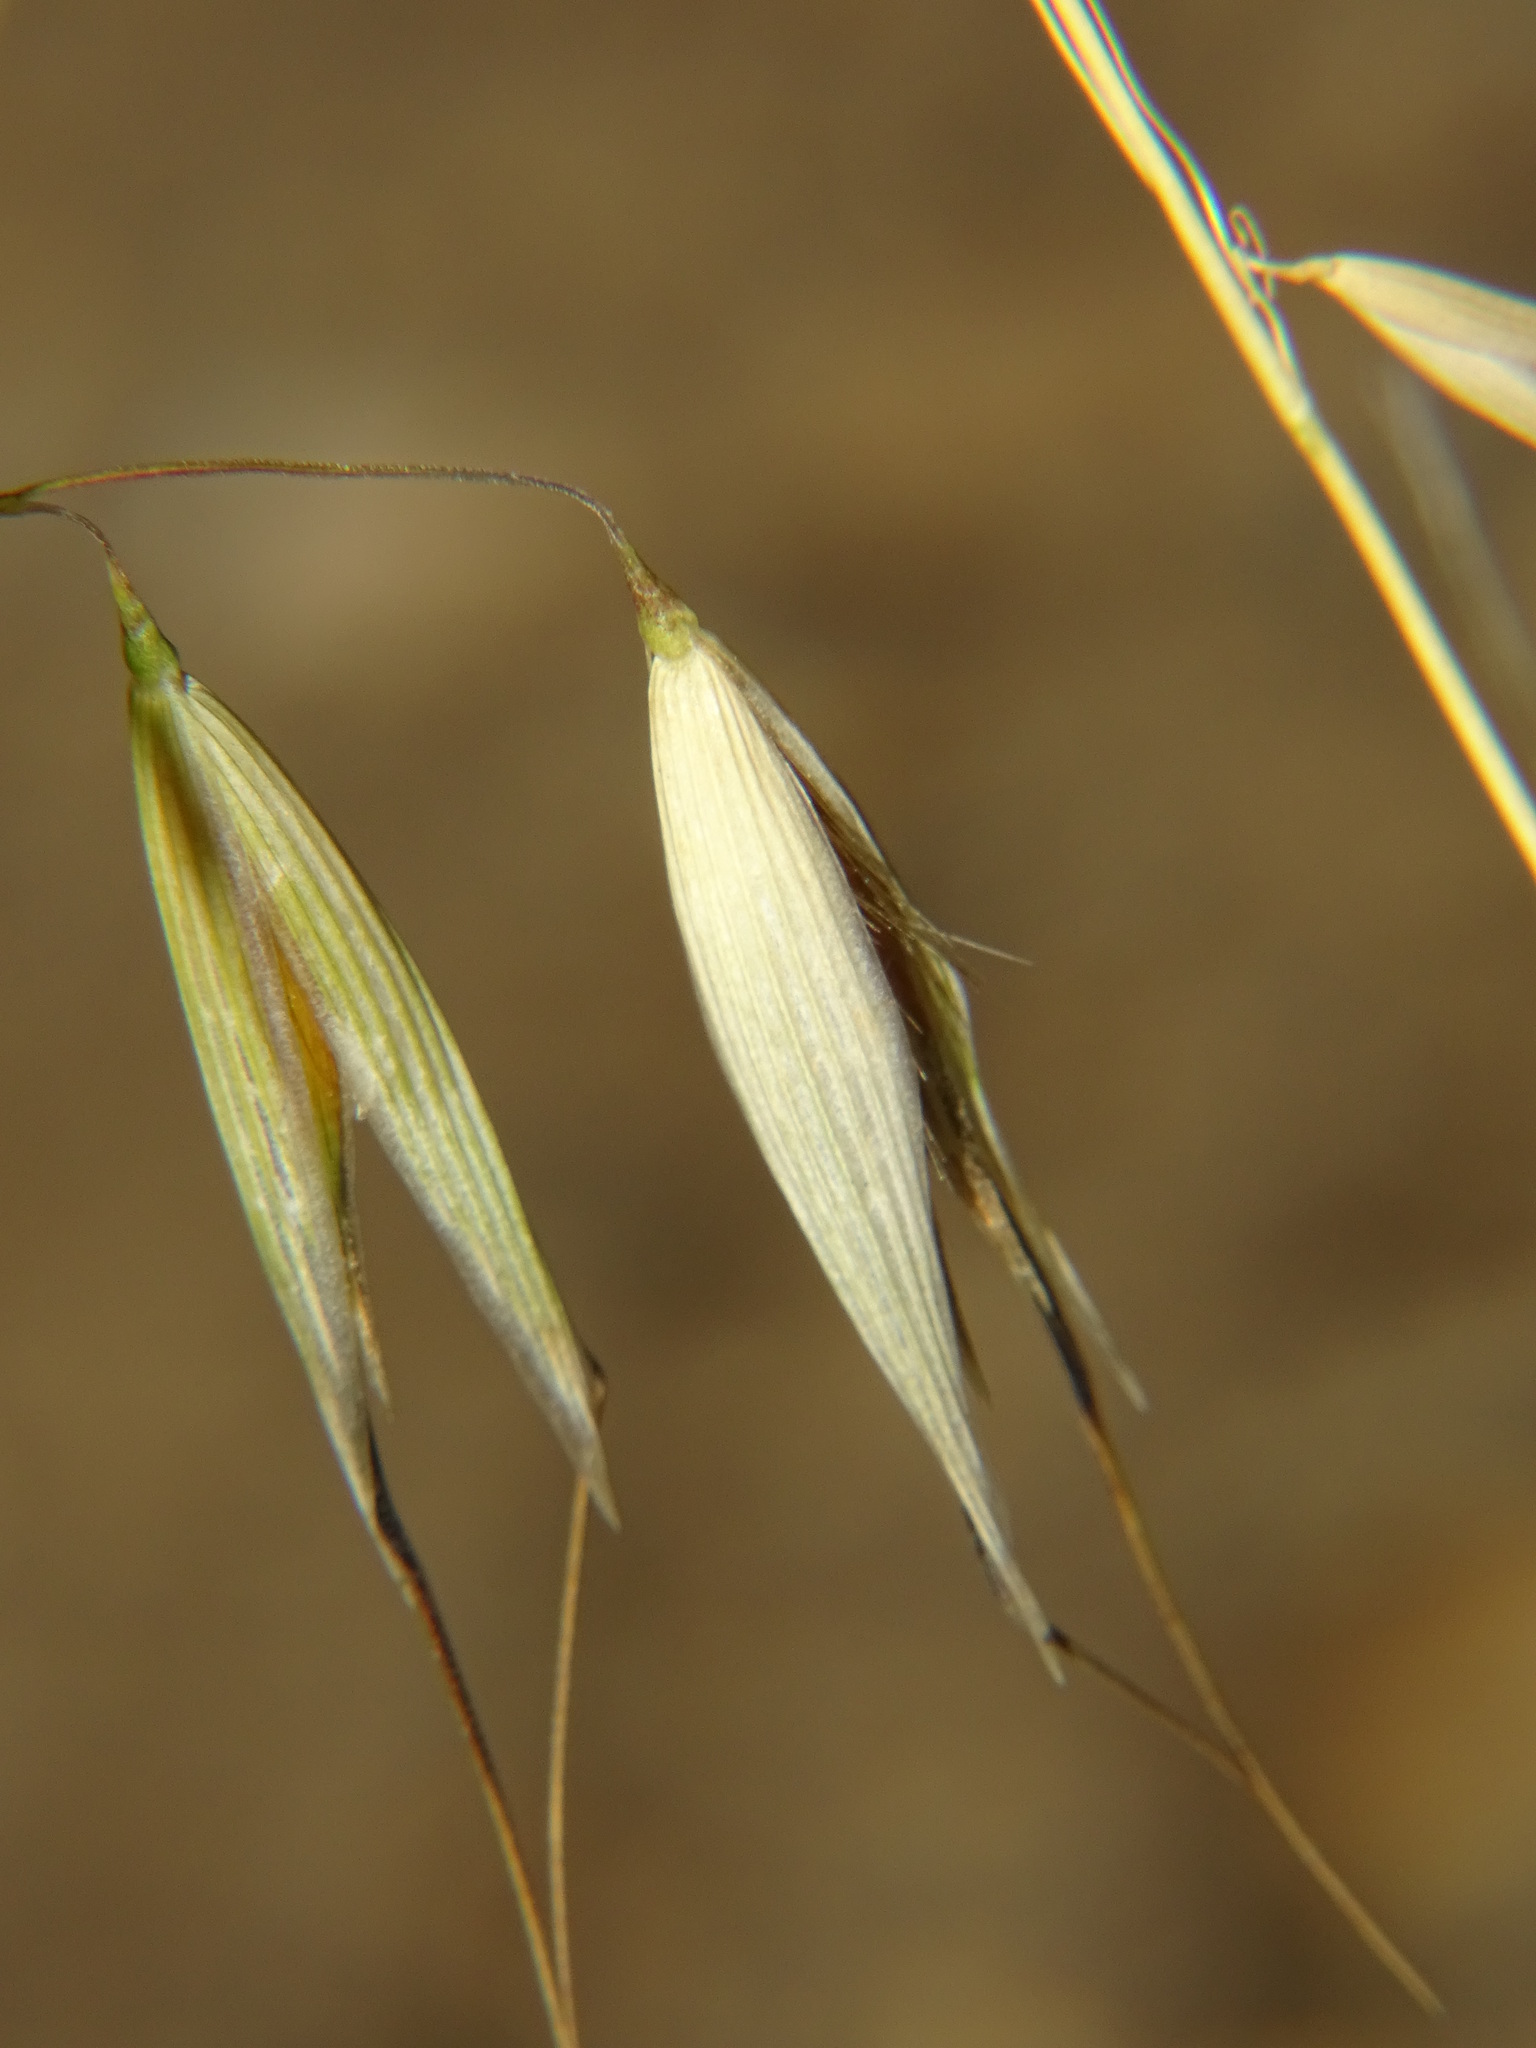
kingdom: Plantae
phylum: Tracheophyta
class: Liliopsida
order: Poales
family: Poaceae
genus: Avena
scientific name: Avena fatua
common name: Wild oat
